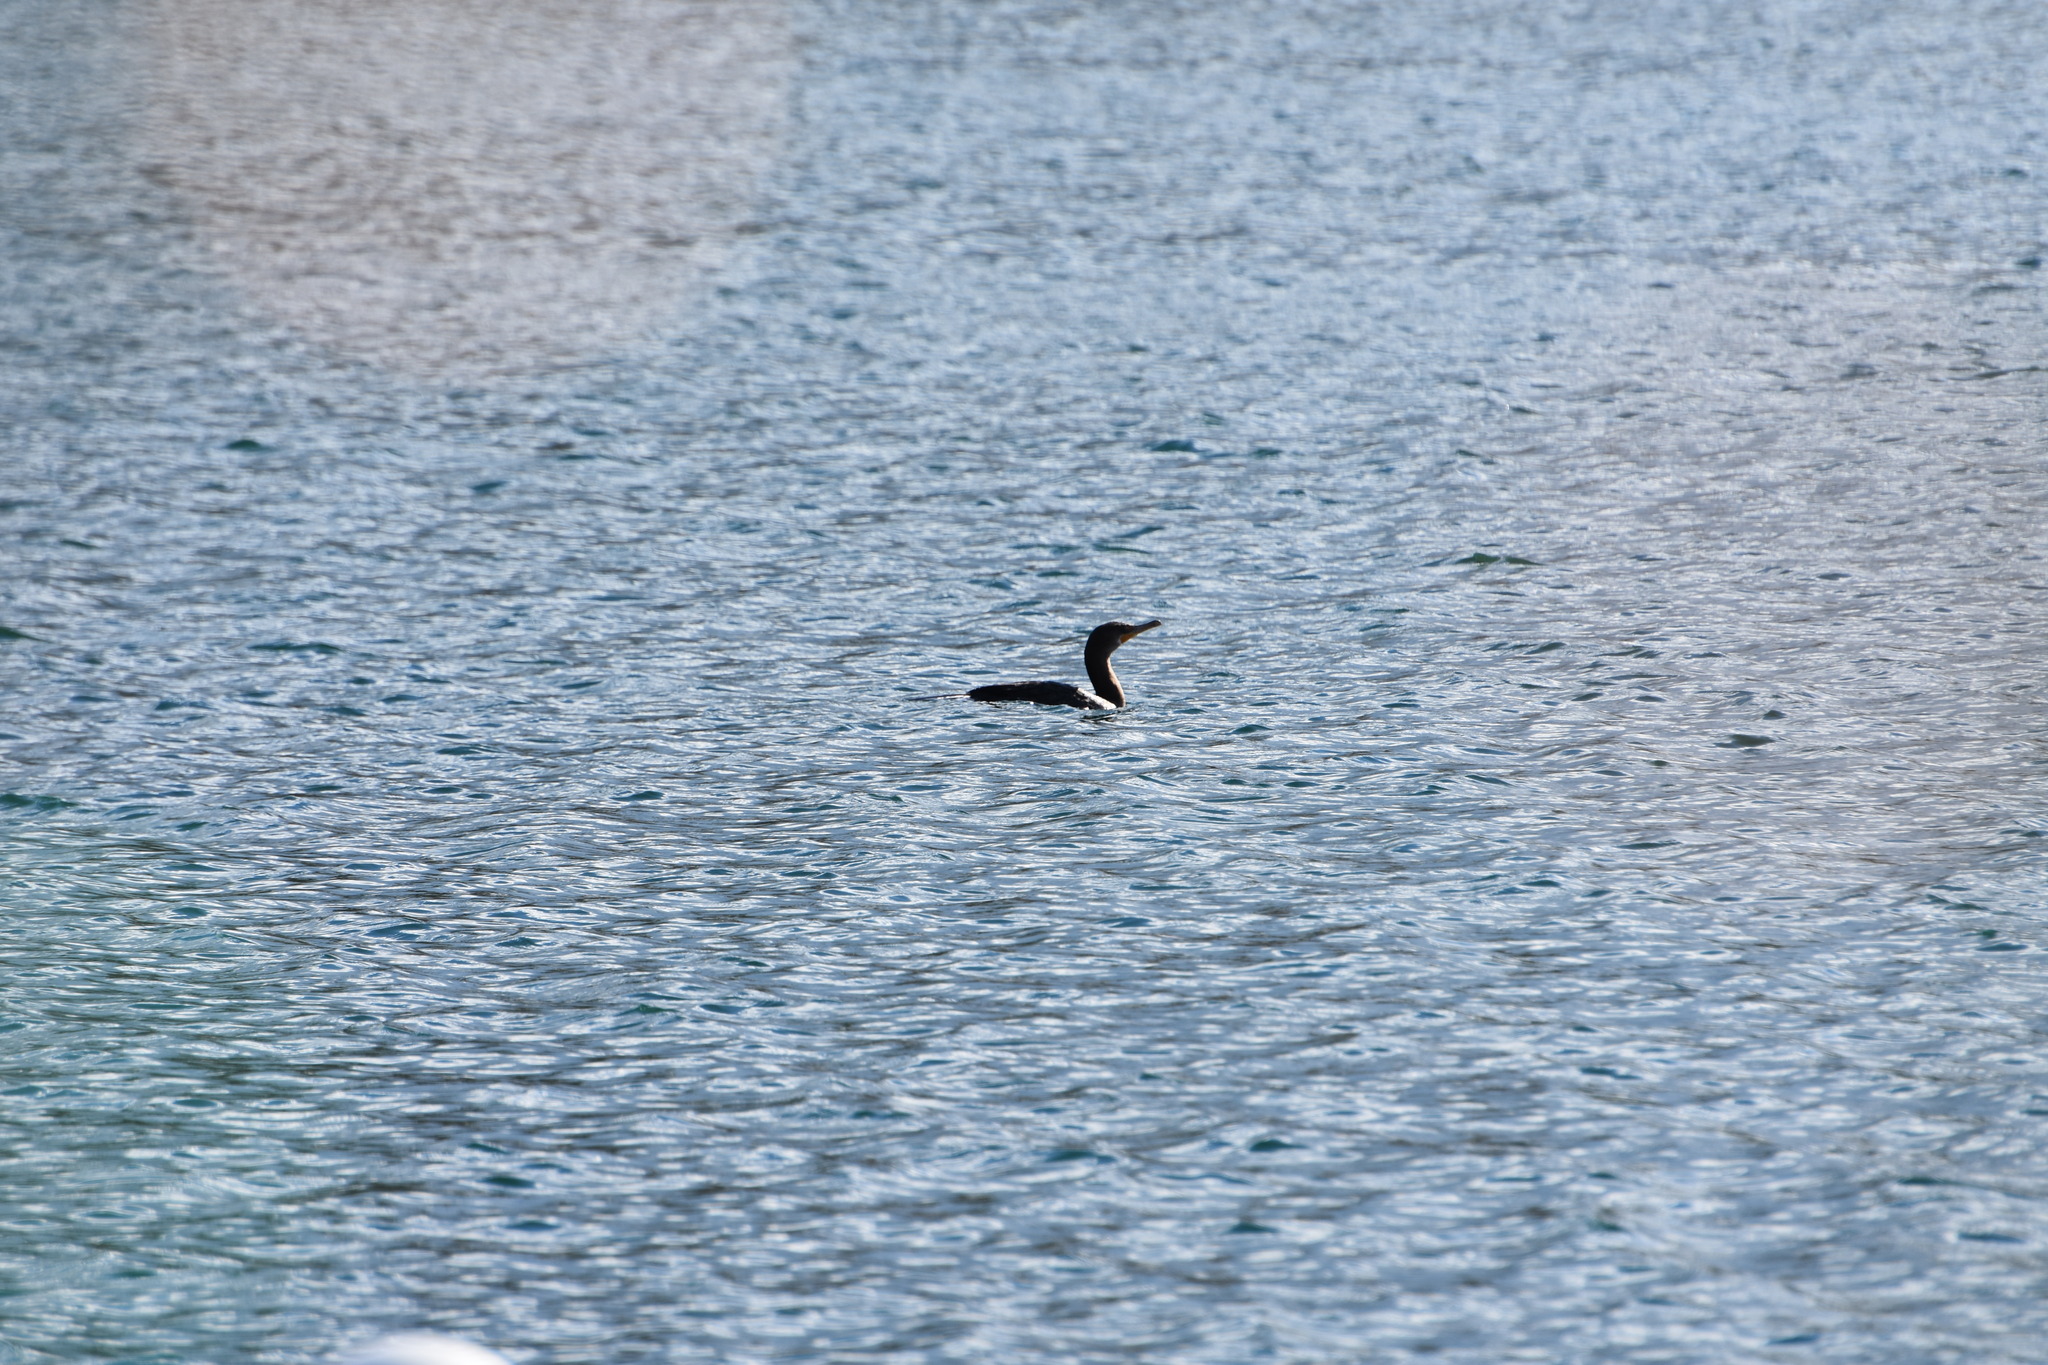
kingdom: Animalia
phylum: Chordata
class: Aves
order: Suliformes
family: Phalacrocoracidae
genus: Phalacrocorax
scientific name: Phalacrocorax auritus
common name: Double-crested cormorant
